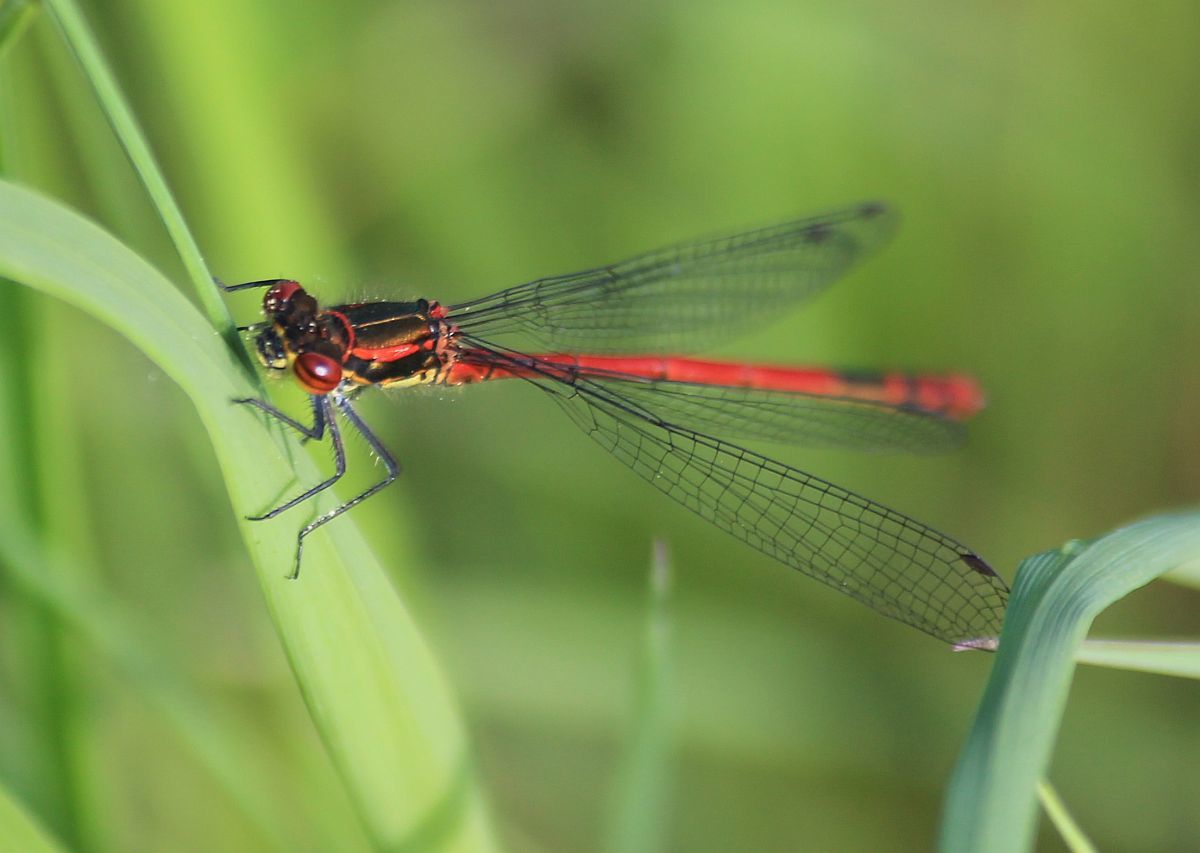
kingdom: Animalia
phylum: Arthropoda
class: Insecta
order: Odonata
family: Coenagrionidae
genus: Pyrrhosoma
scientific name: Pyrrhosoma nymphula
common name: Large red damsel
